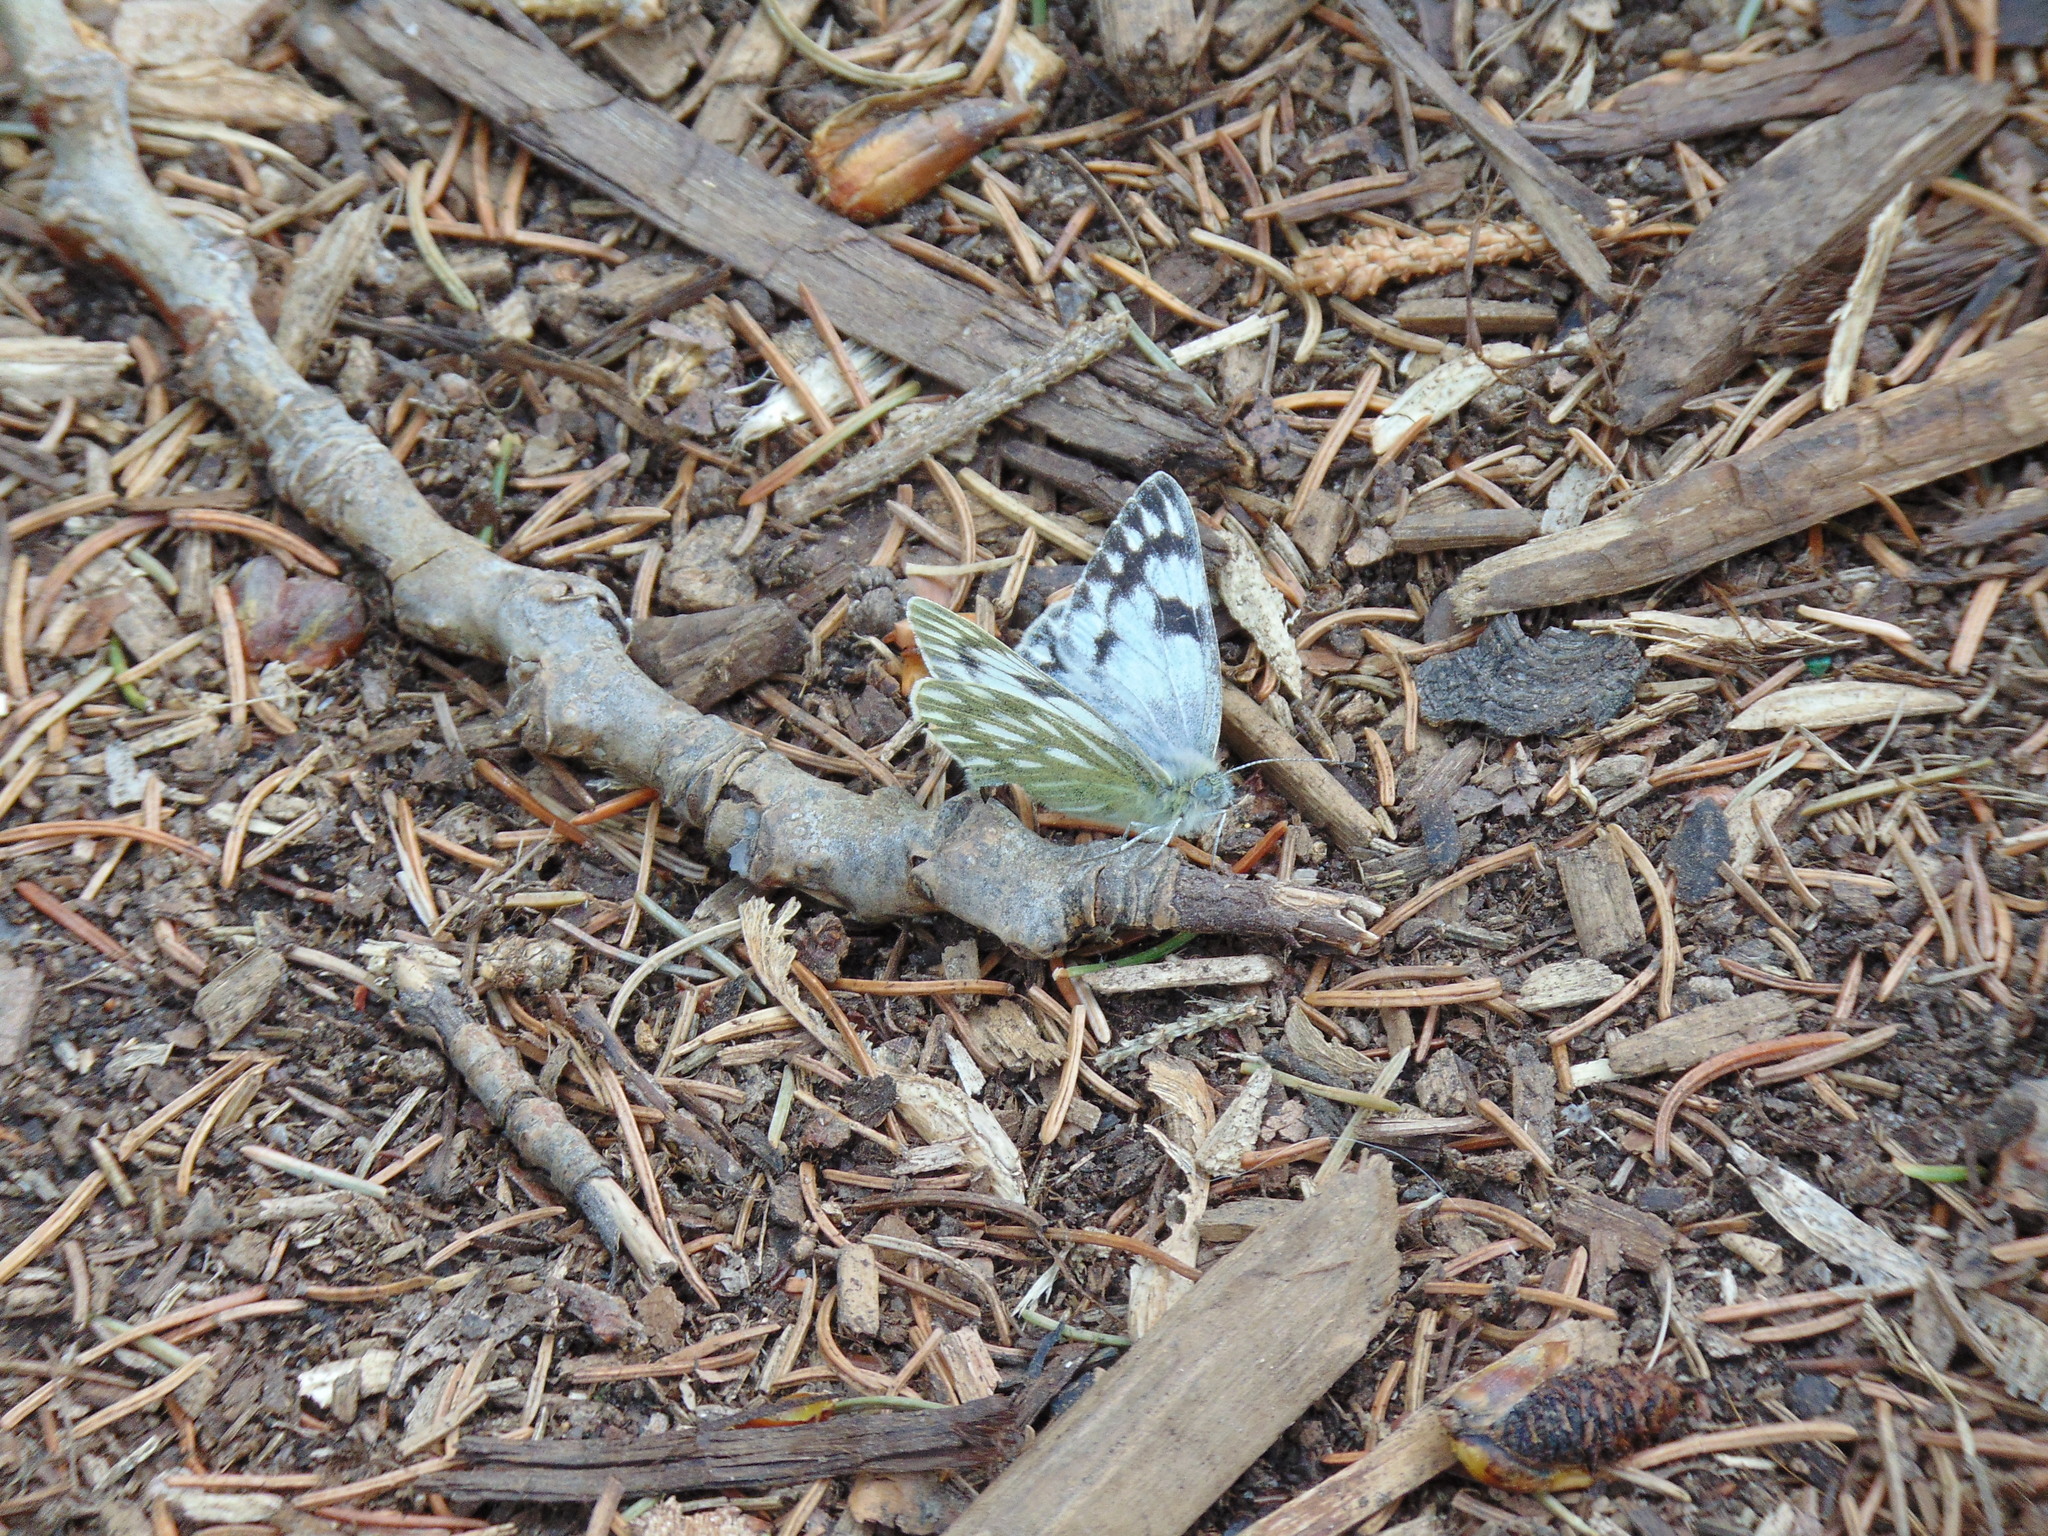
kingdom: Animalia
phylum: Arthropoda
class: Insecta
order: Lepidoptera
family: Pieridae
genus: Pontia
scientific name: Pontia occidentalis
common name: Western white
